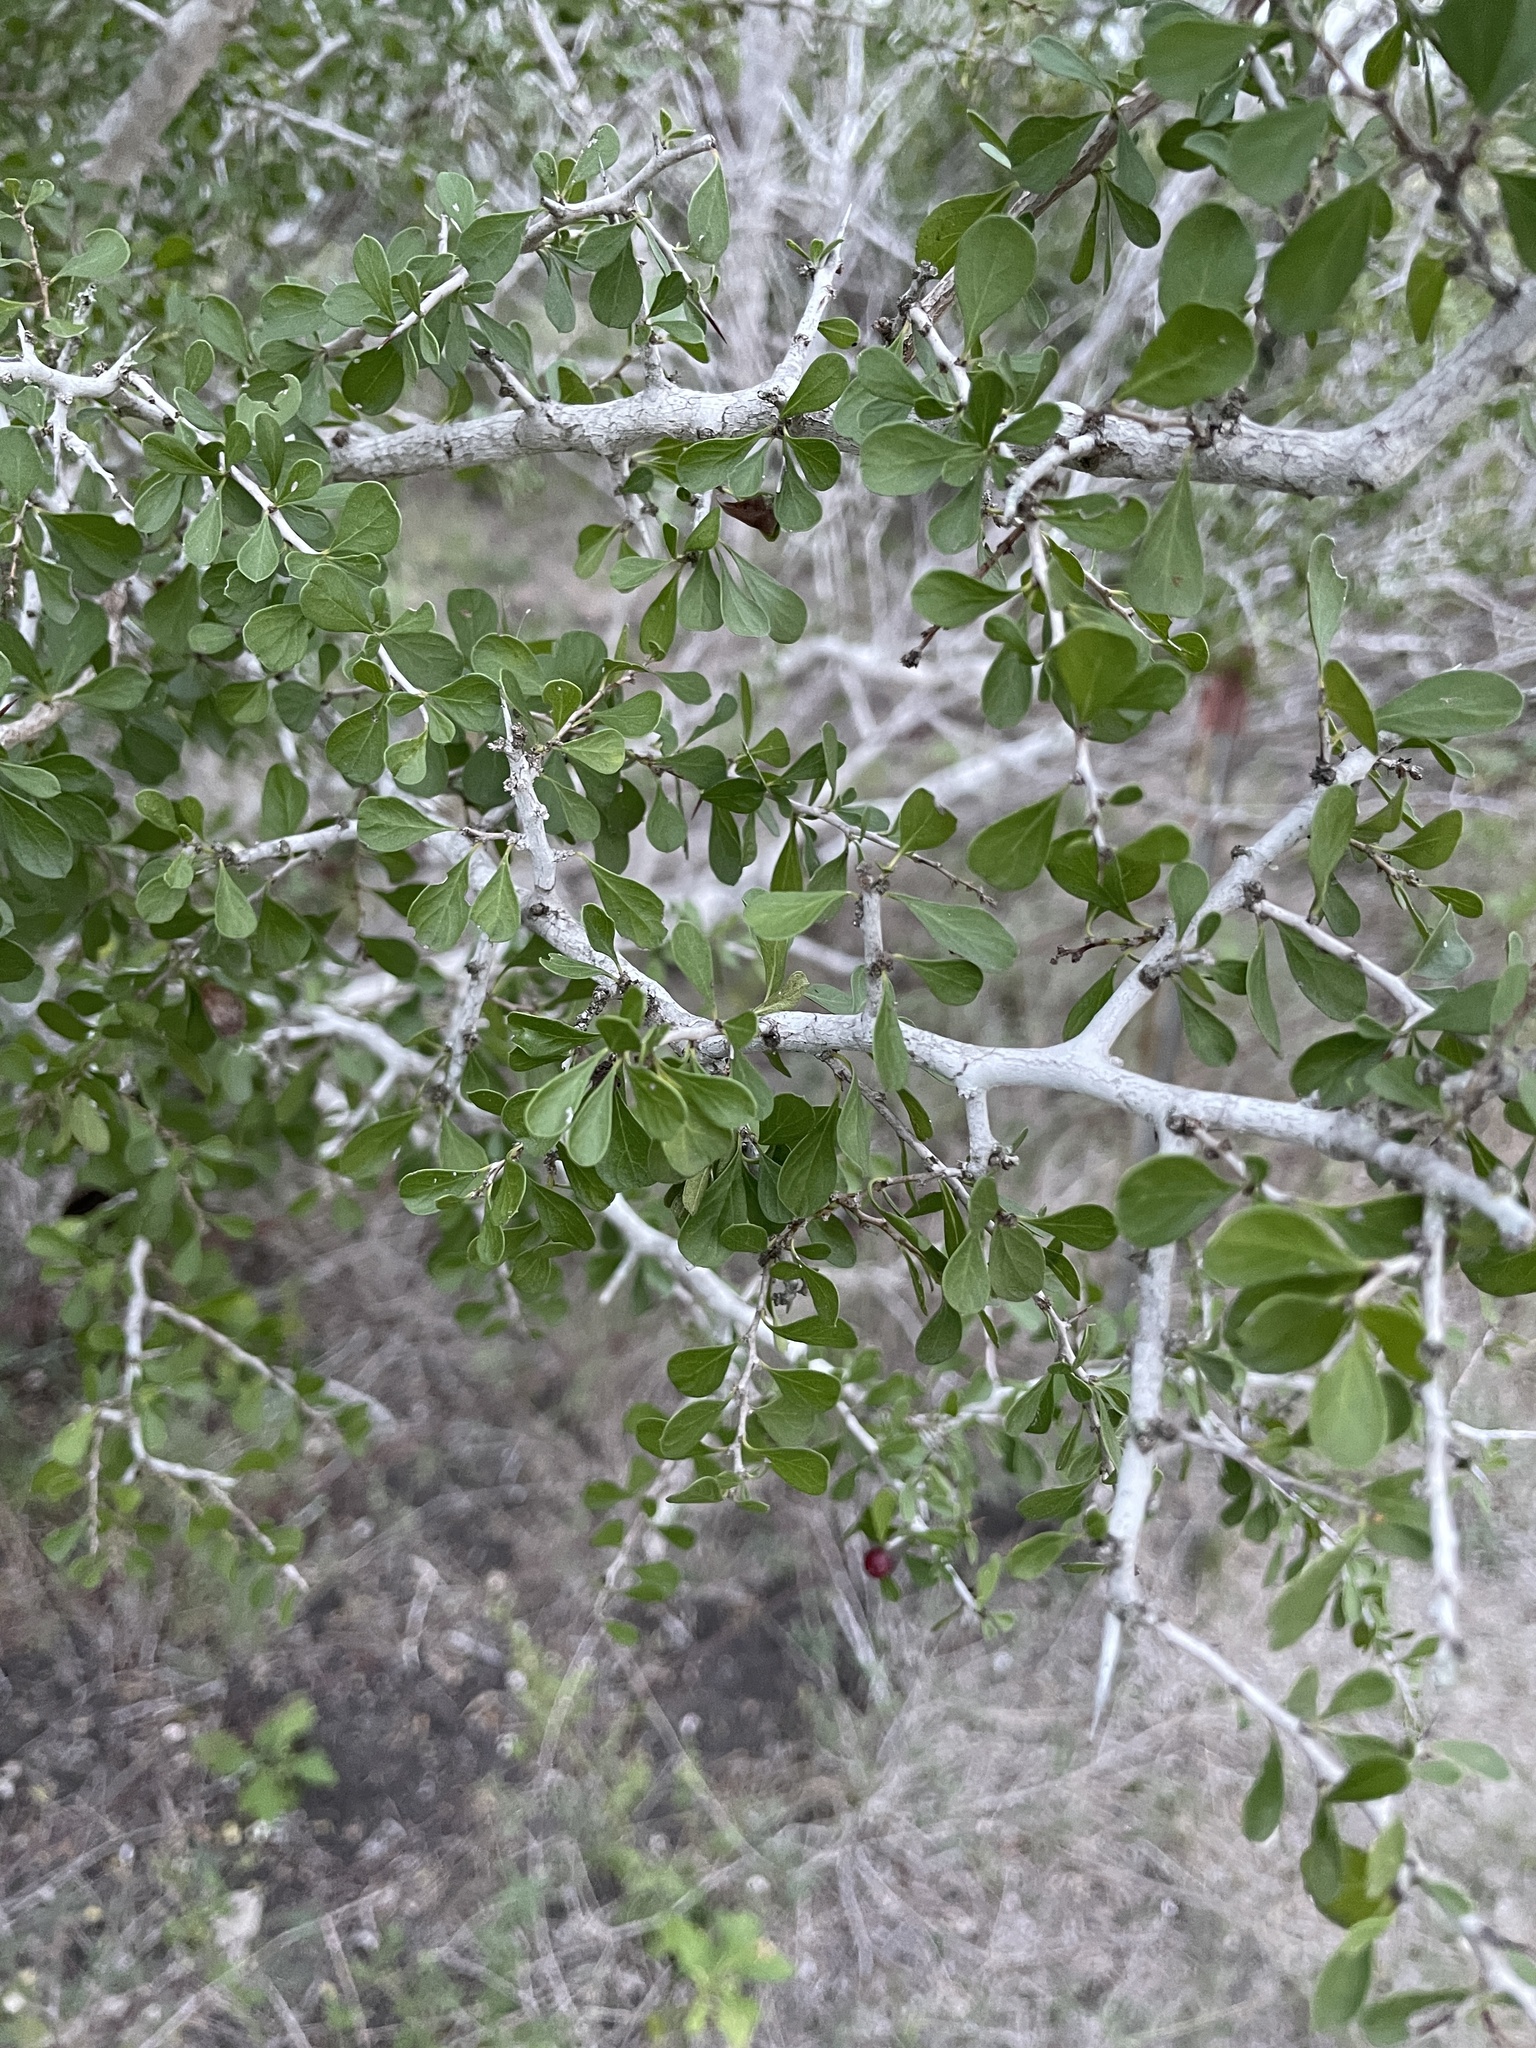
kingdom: Plantae
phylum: Tracheophyta
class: Magnoliopsida
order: Rosales
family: Rhamnaceae
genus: Condalia
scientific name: Condalia hookeri
